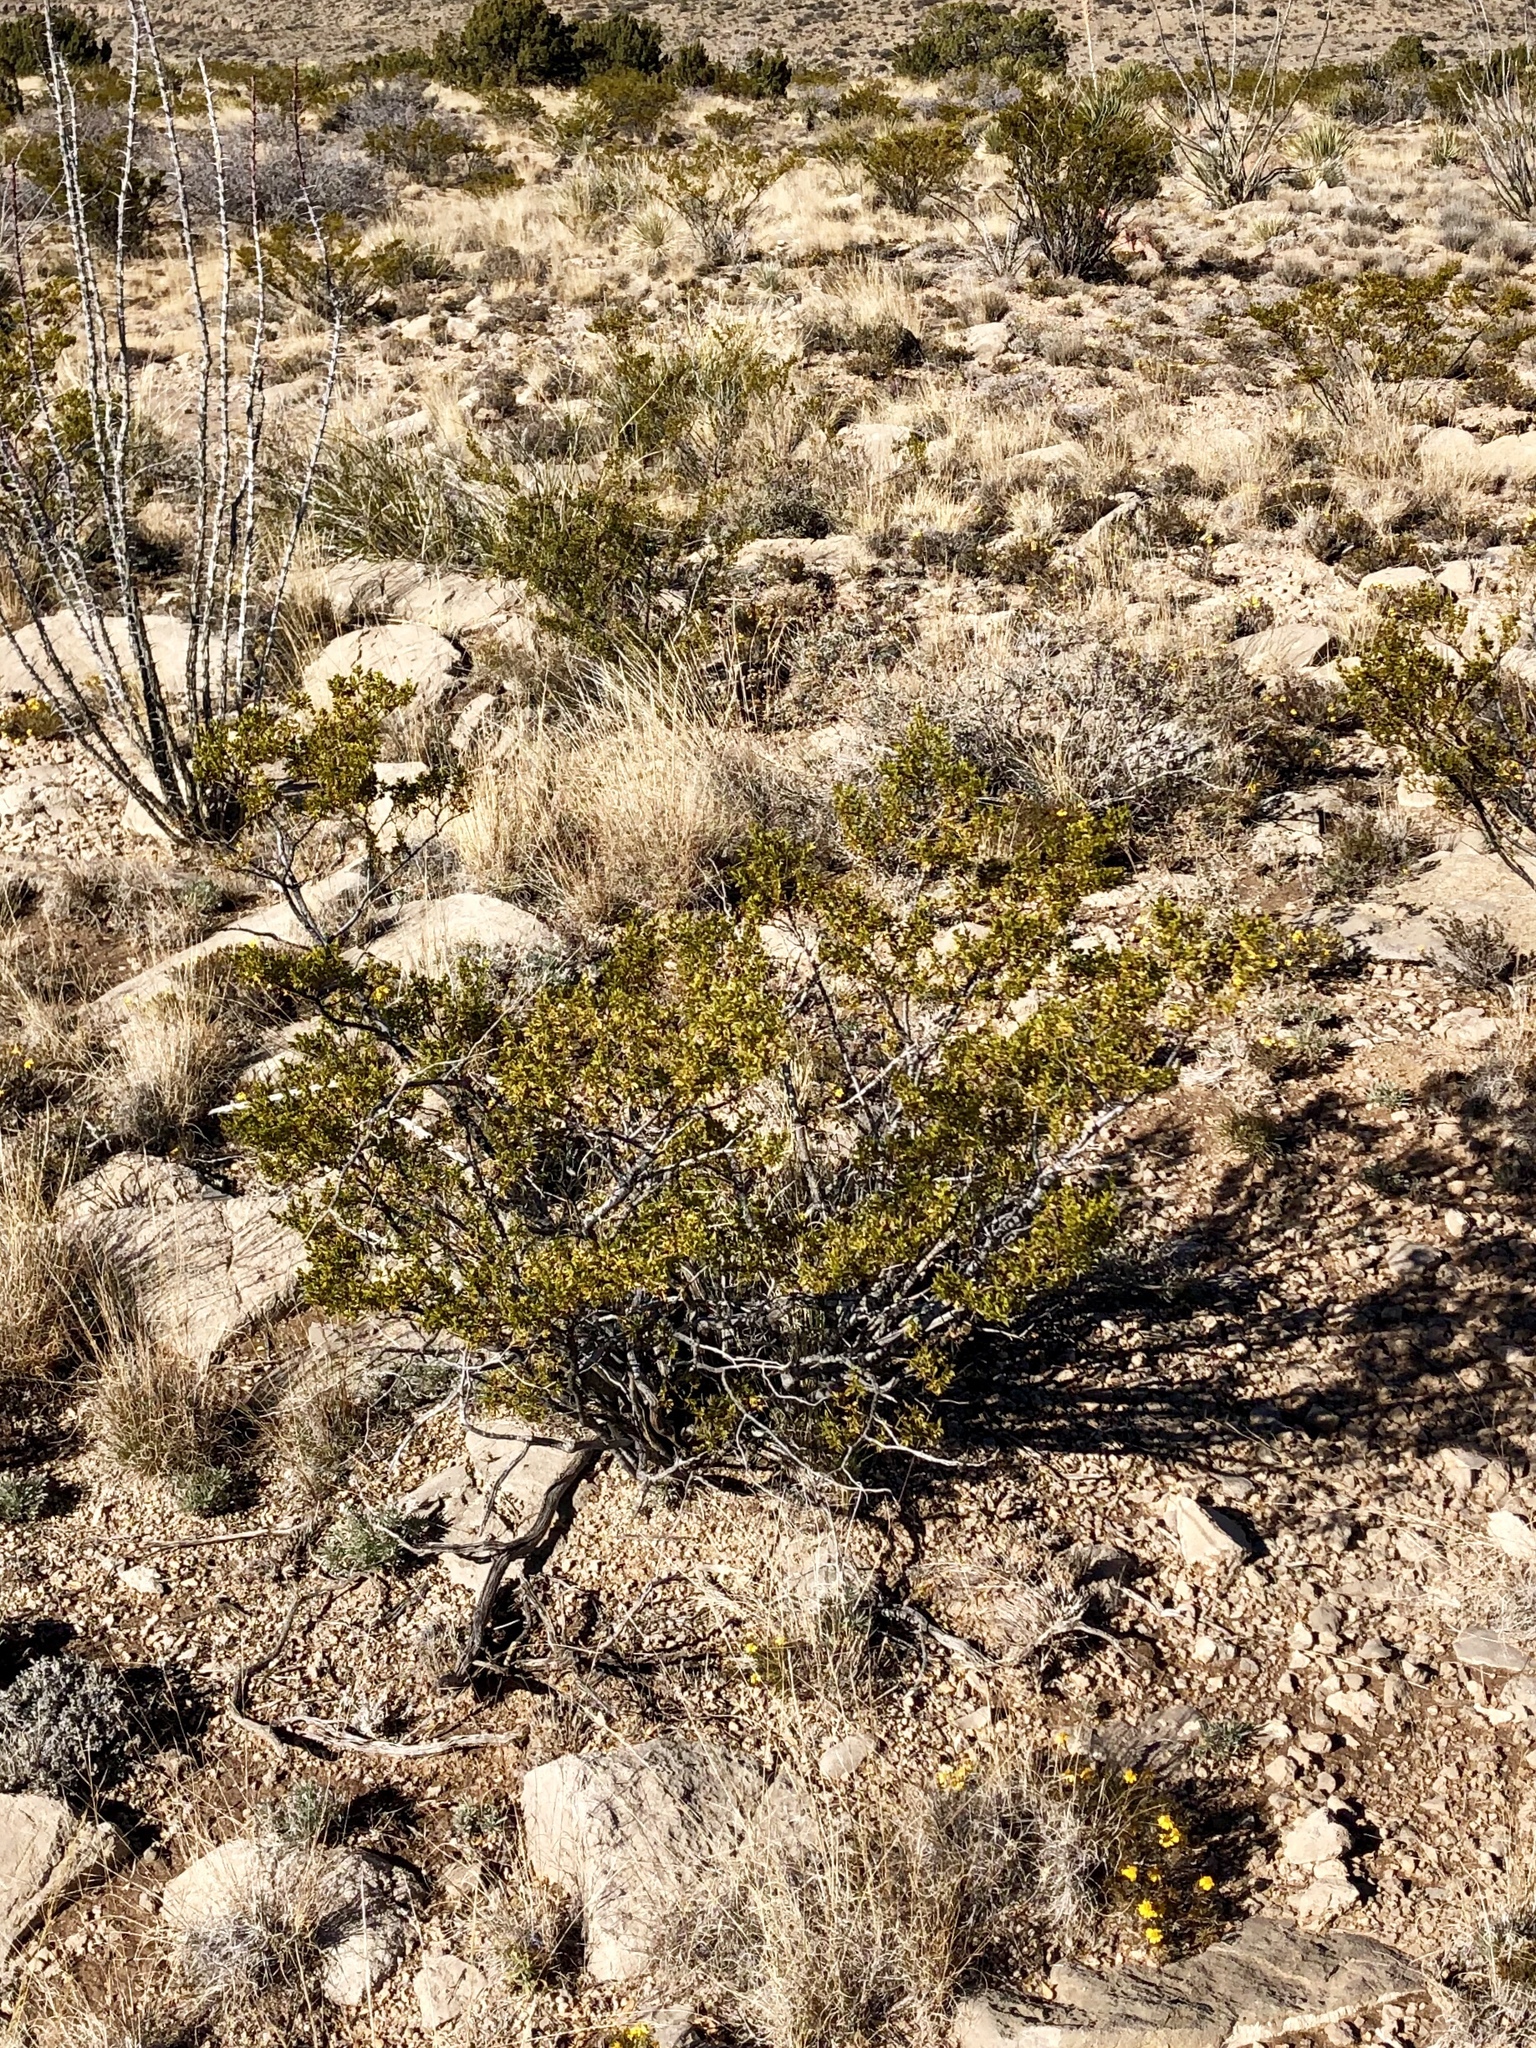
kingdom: Plantae
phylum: Tracheophyta
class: Magnoliopsida
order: Zygophyllales
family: Zygophyllaceae
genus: Larrea
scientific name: Larrea tridentata
